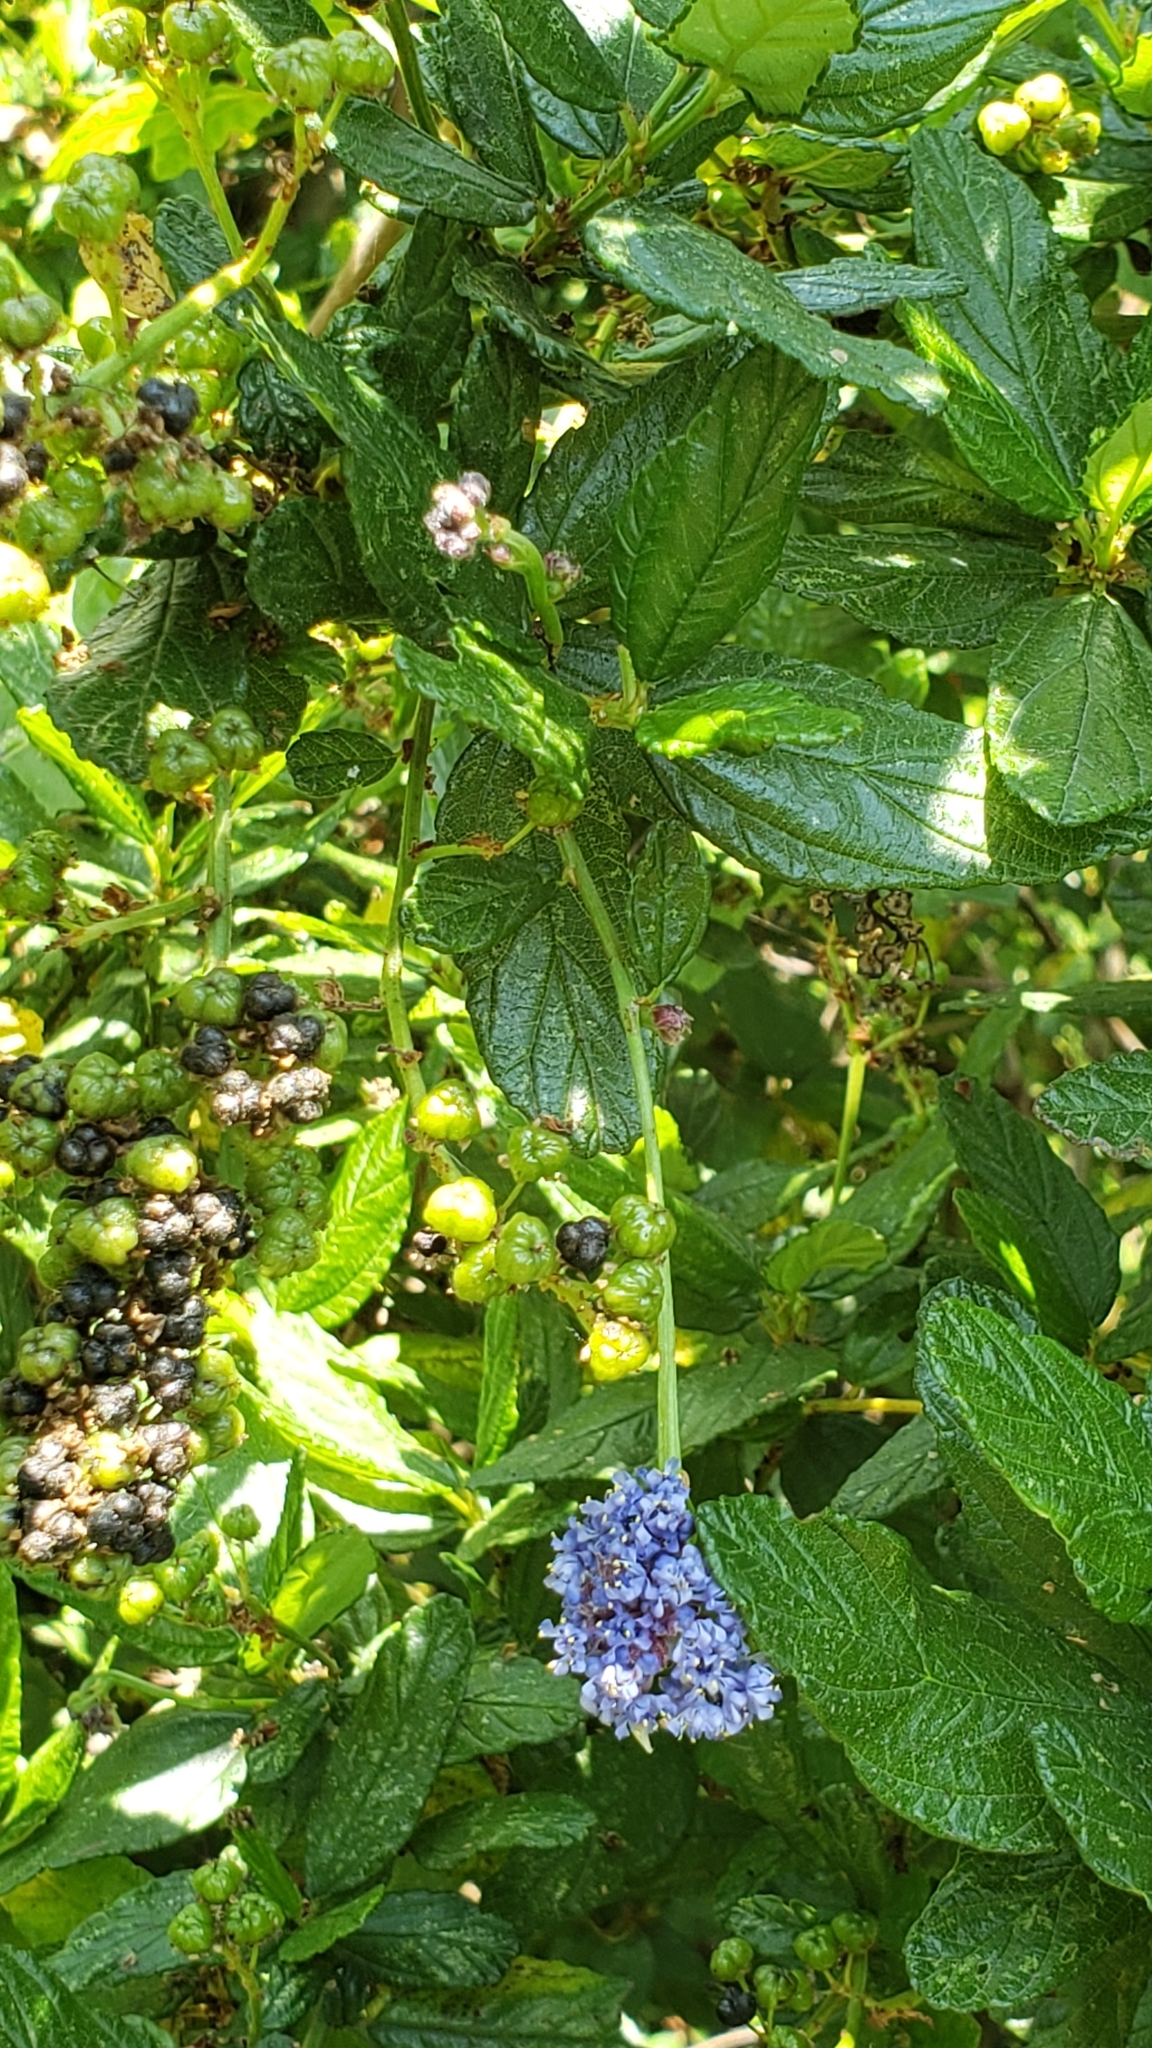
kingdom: Plantae
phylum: Tracheophyta
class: Magnoliopsida
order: Rosales
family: Rhamnaceae
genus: Ceanothus
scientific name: Ceanothus thyrsiflorus
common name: California-lilac
